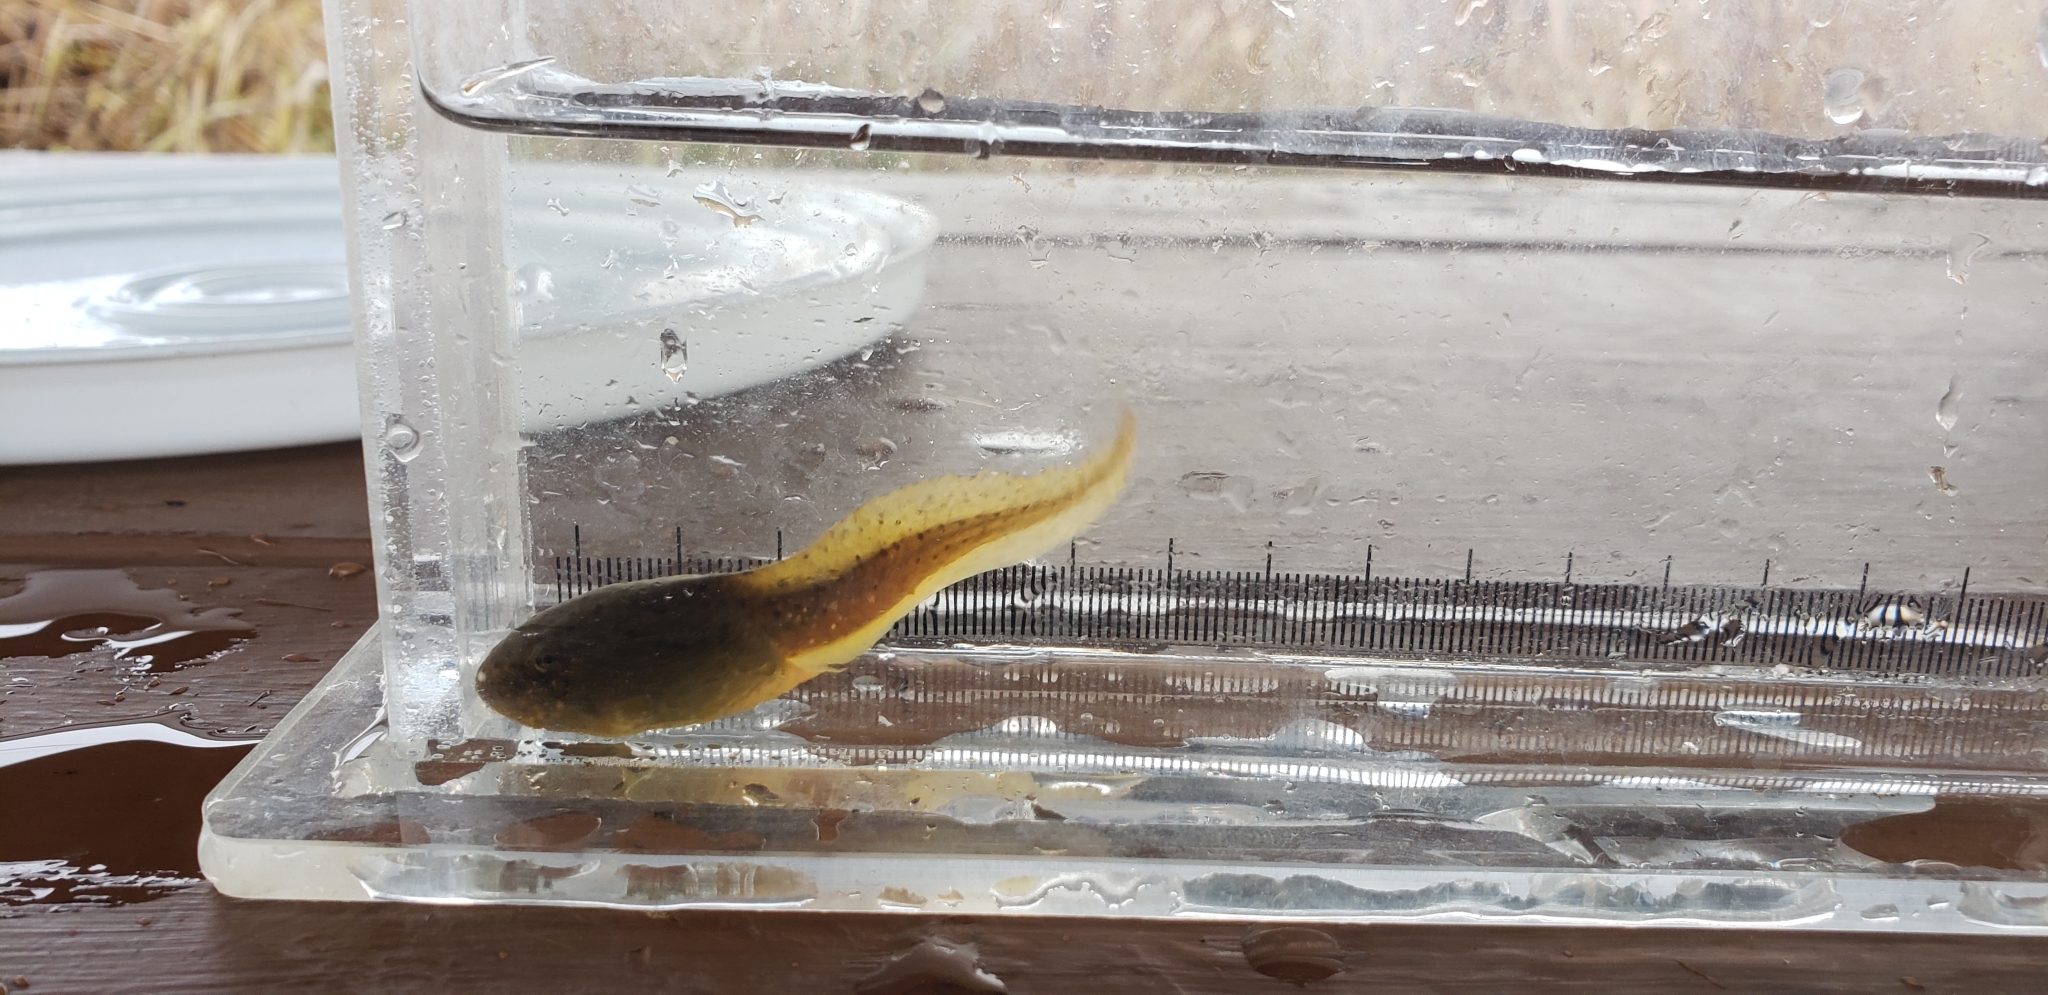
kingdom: Animalia
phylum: Chordata
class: Amphibia
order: Anura
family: Ranidae
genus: Lithobates
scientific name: Lithobates catesbeianus
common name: American bullfrog
